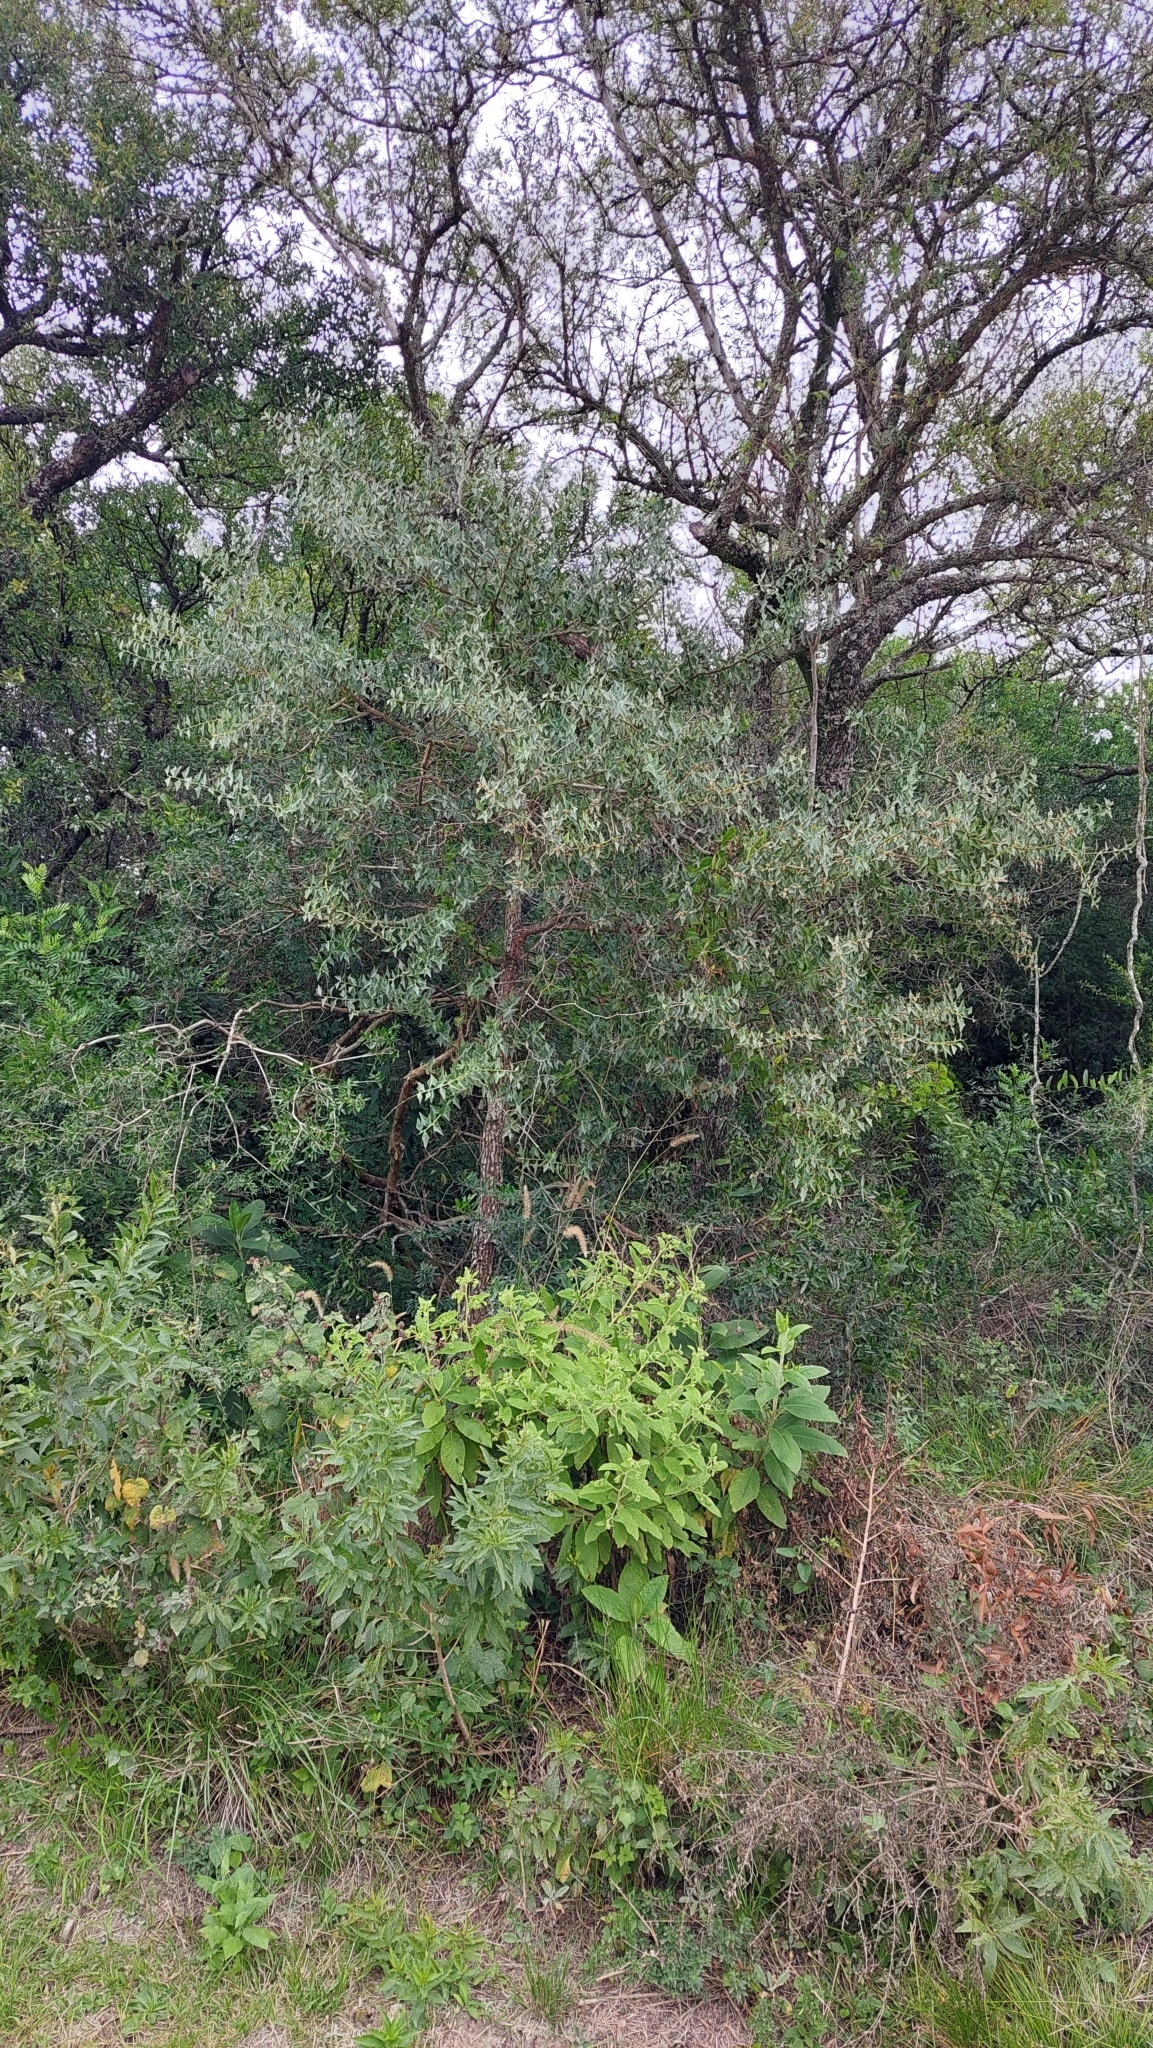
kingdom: Plantae
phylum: Tracheophyta
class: Magnoliopsida
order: Santalales
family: Cervantesiaceae
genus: Jodina
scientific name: Jodina rhombifolia
